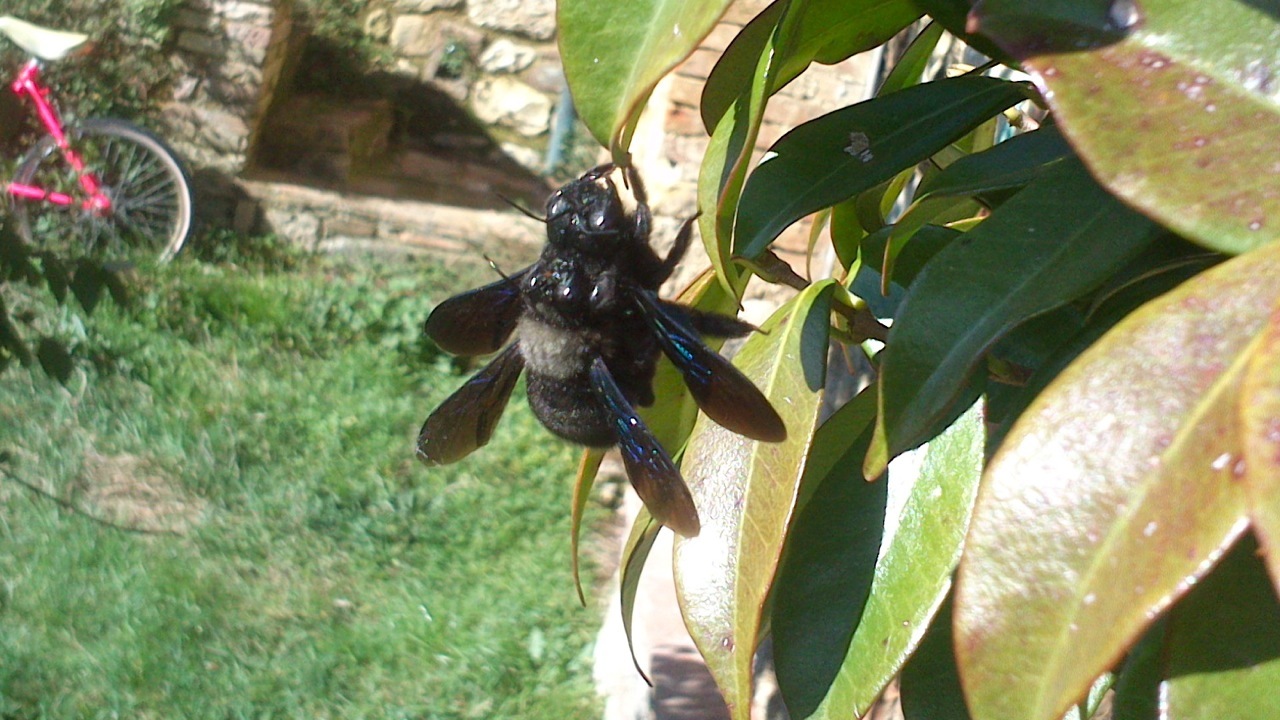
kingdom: Animalia
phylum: Arthropoda
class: Insecta
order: Hymenoptera
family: Apidae
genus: Xylocopa
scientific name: Xylocopa
